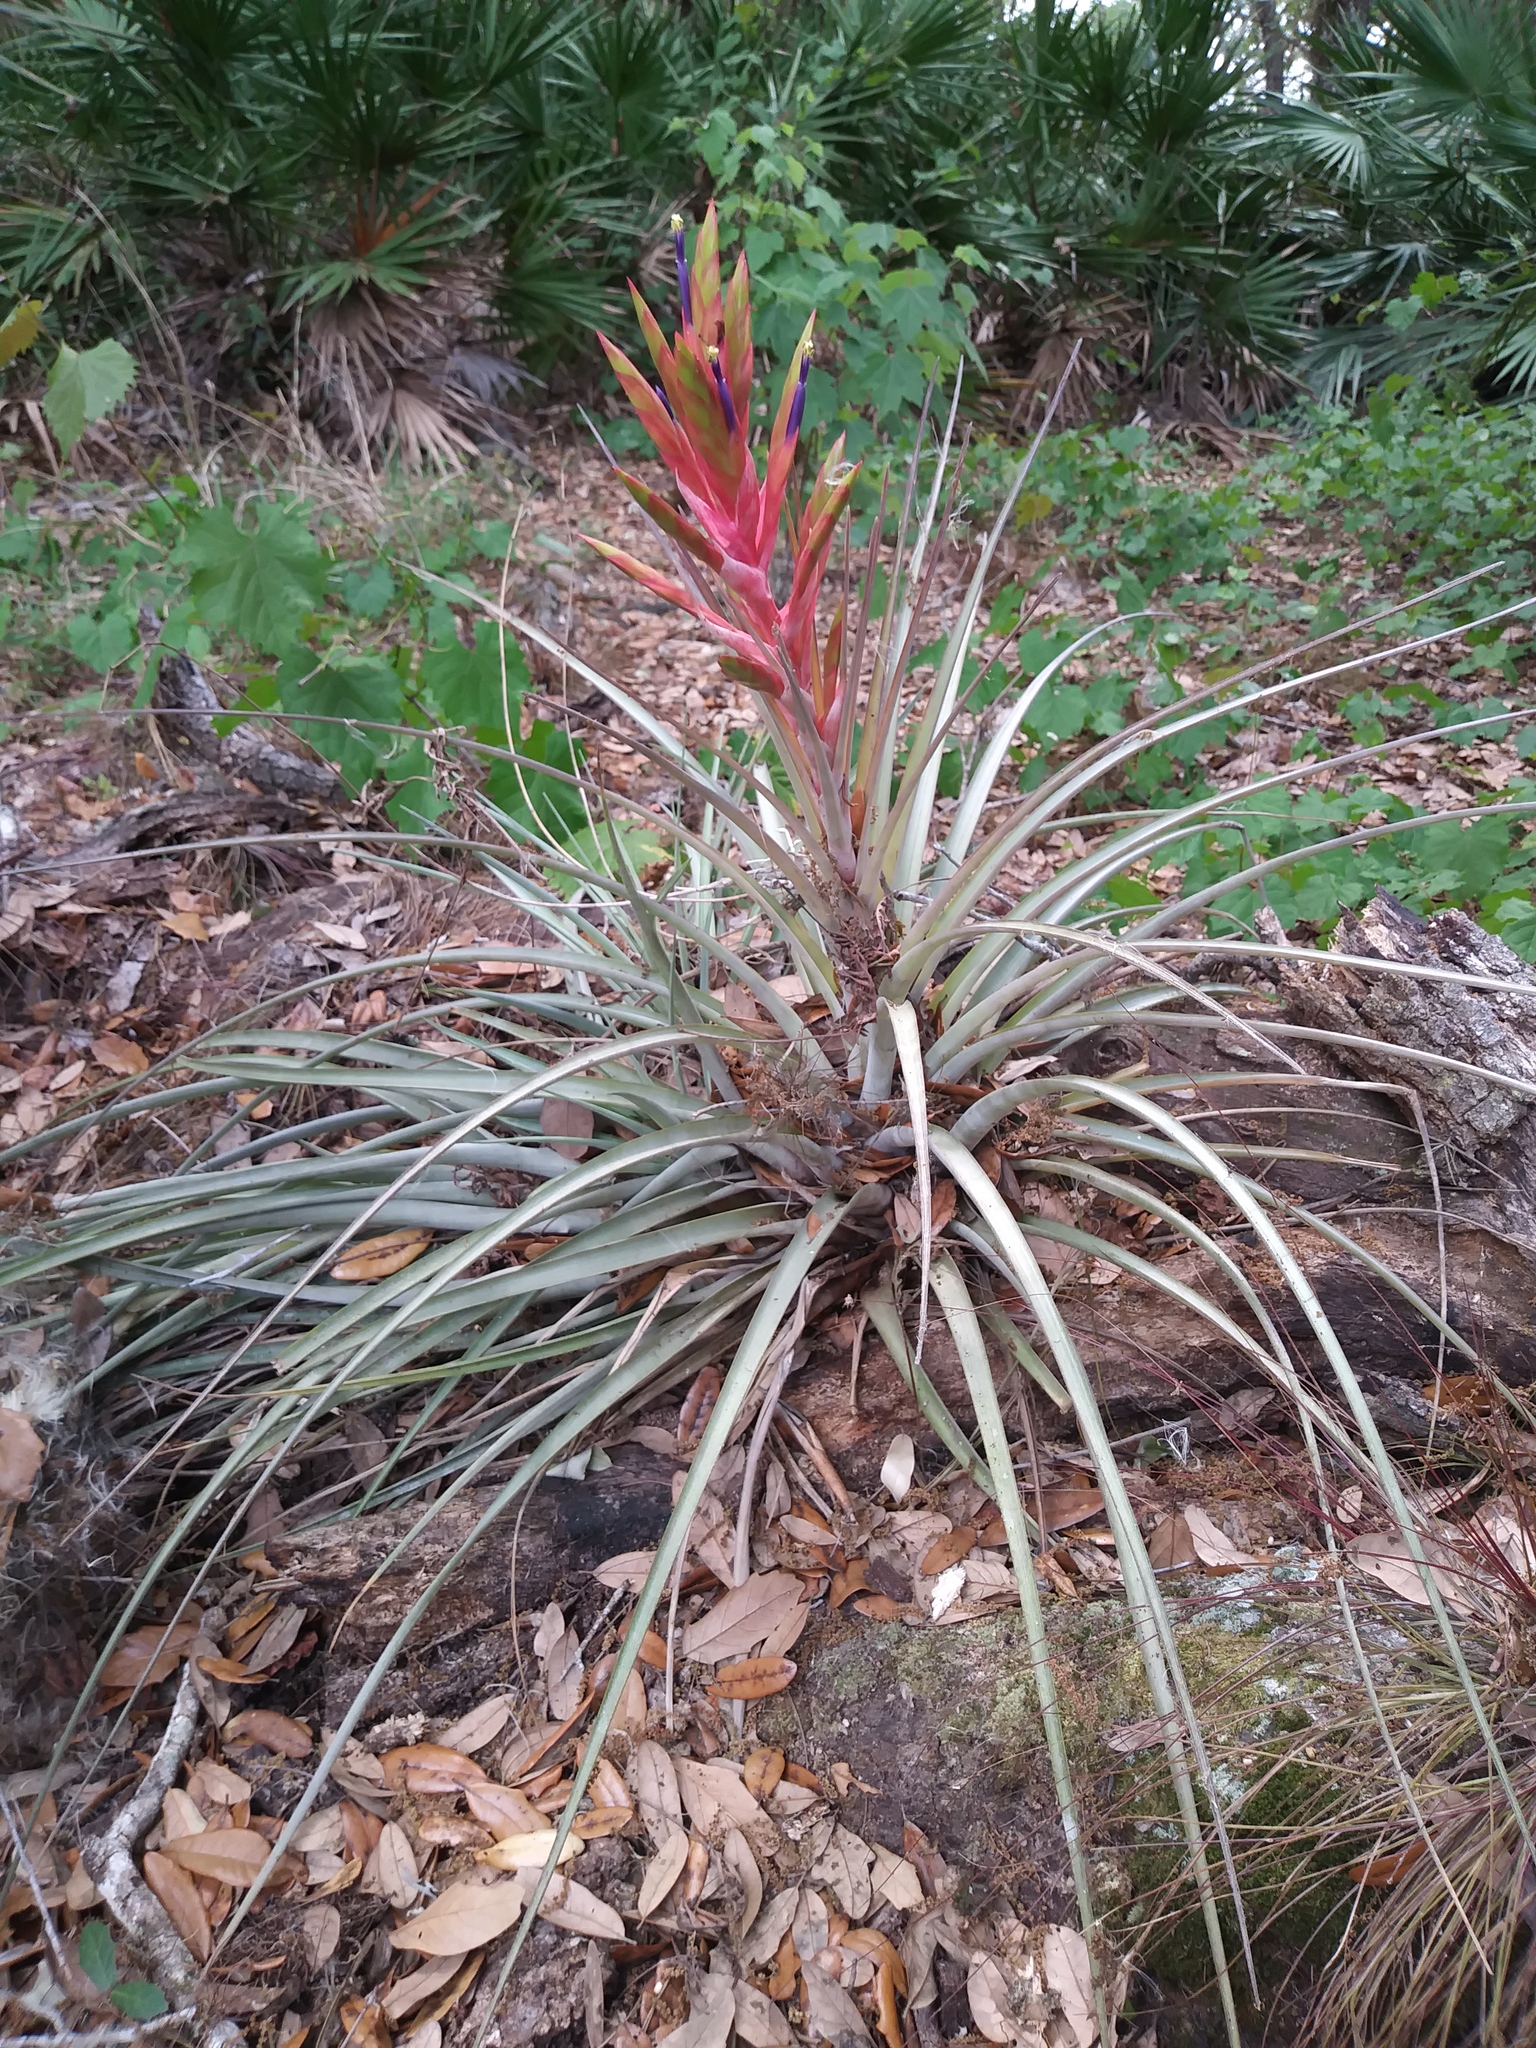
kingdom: Plantae
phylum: Tracheophyta
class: Liliopsida
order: Poales
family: Bromeliaceae
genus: Tillandsia
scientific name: Tillandsia fasciculata
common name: Giant airplant
